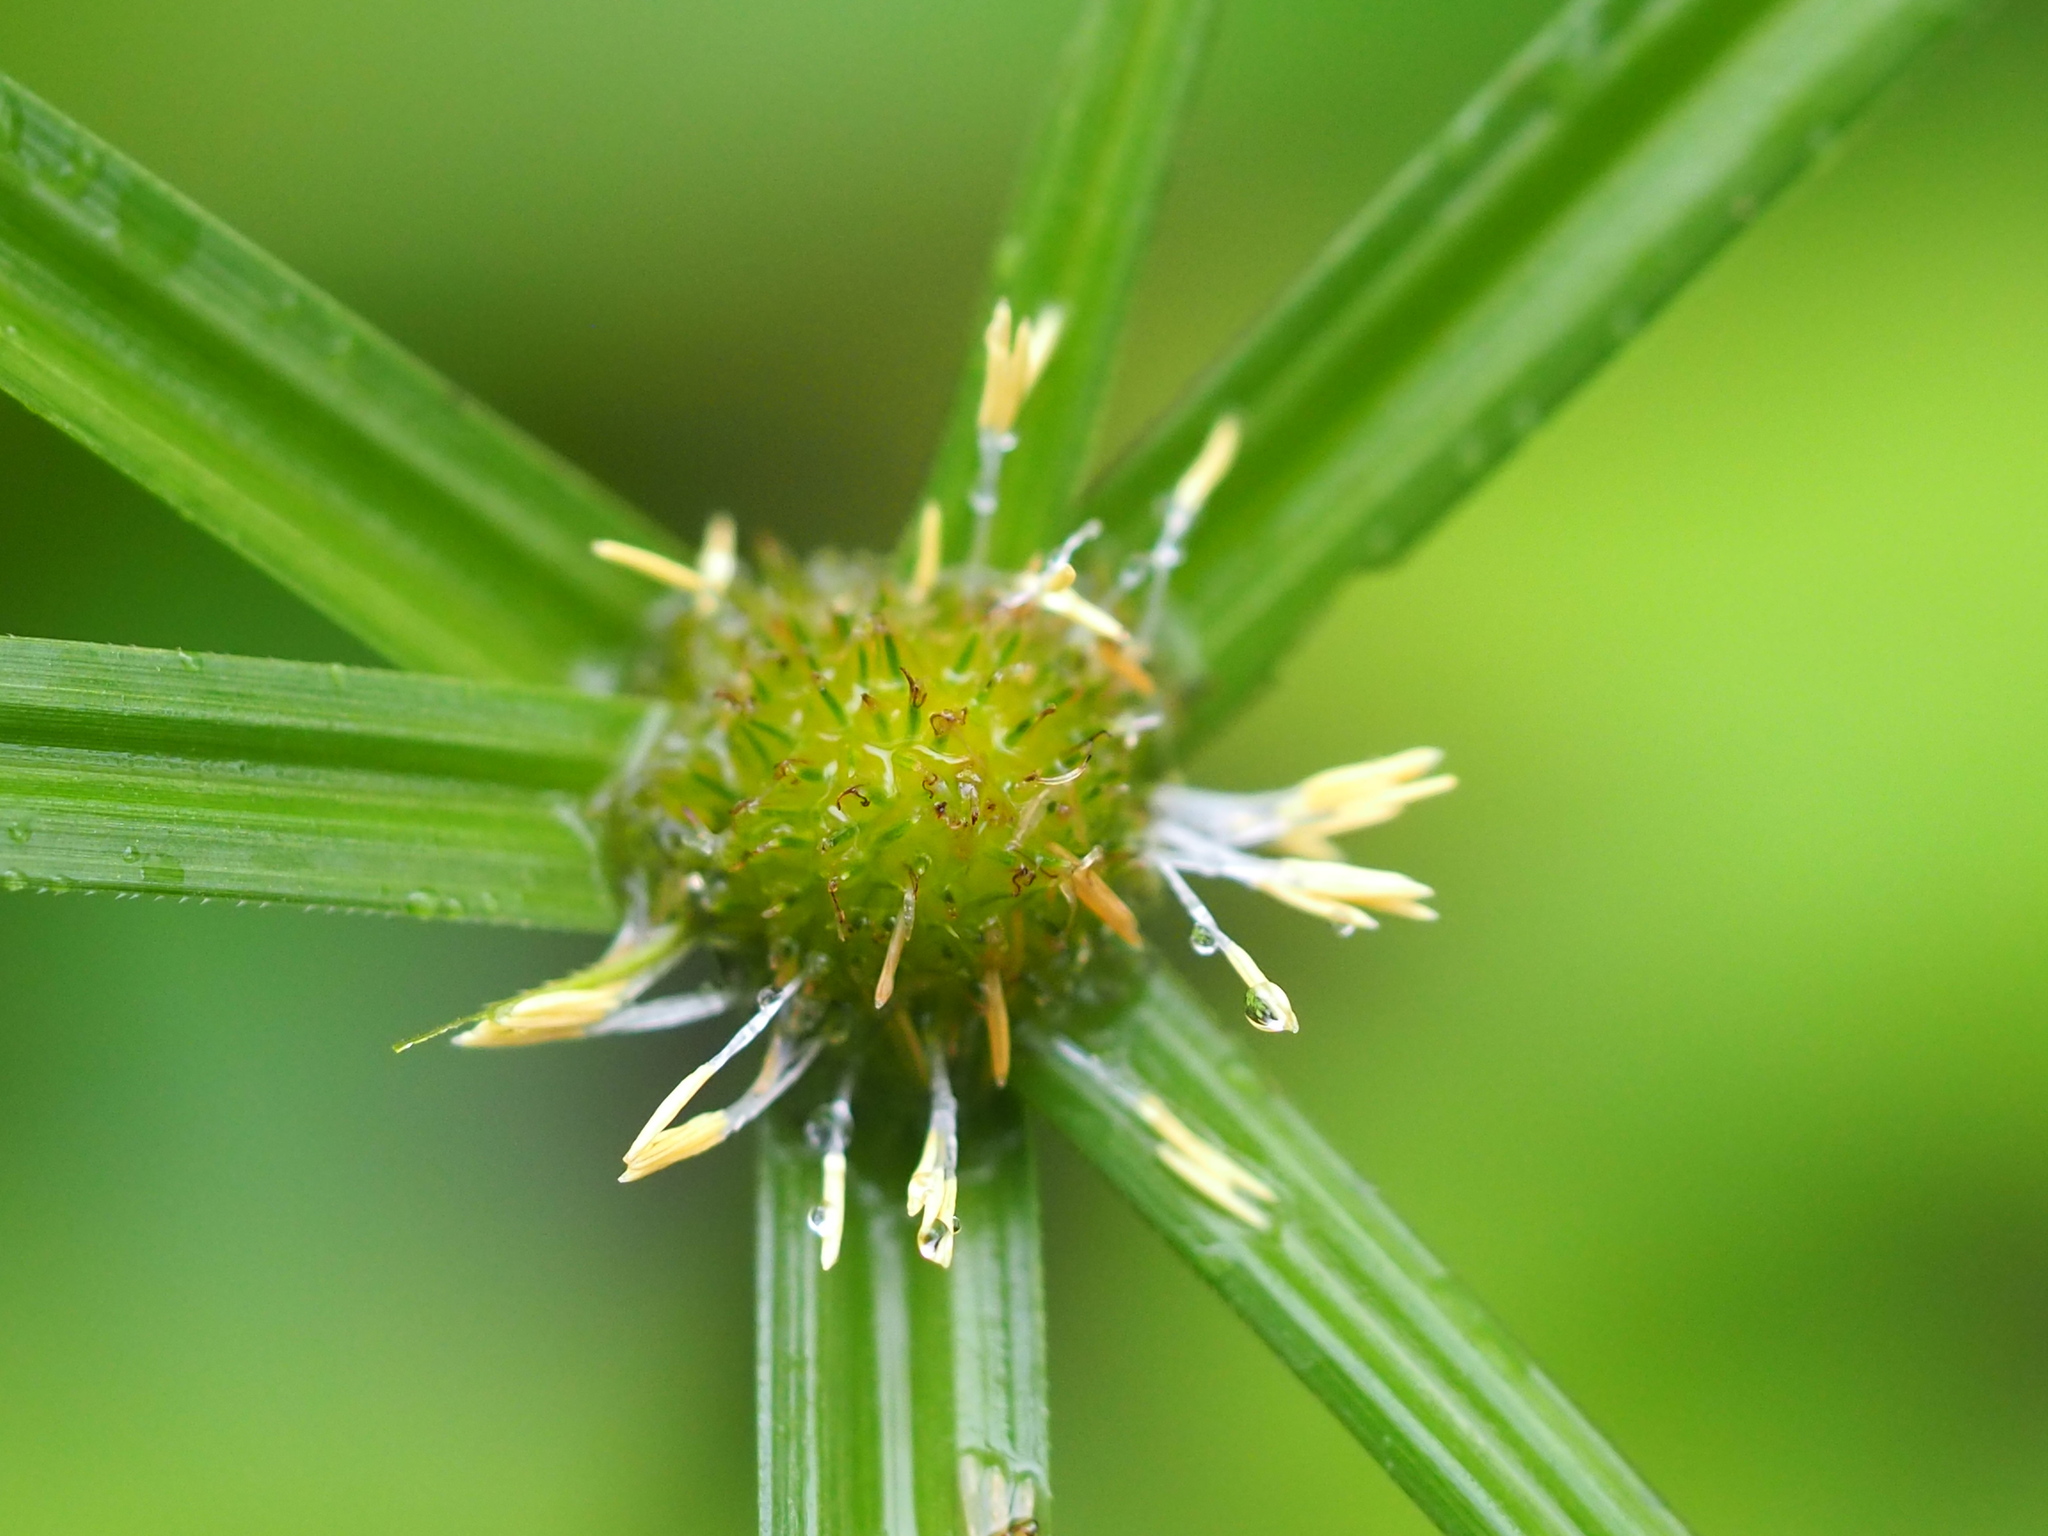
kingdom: Plantae
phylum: Tracheophyta
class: Liliopsida
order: Poales
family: Cyperaceae
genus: Cyperus
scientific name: Cyperus aromaticus
